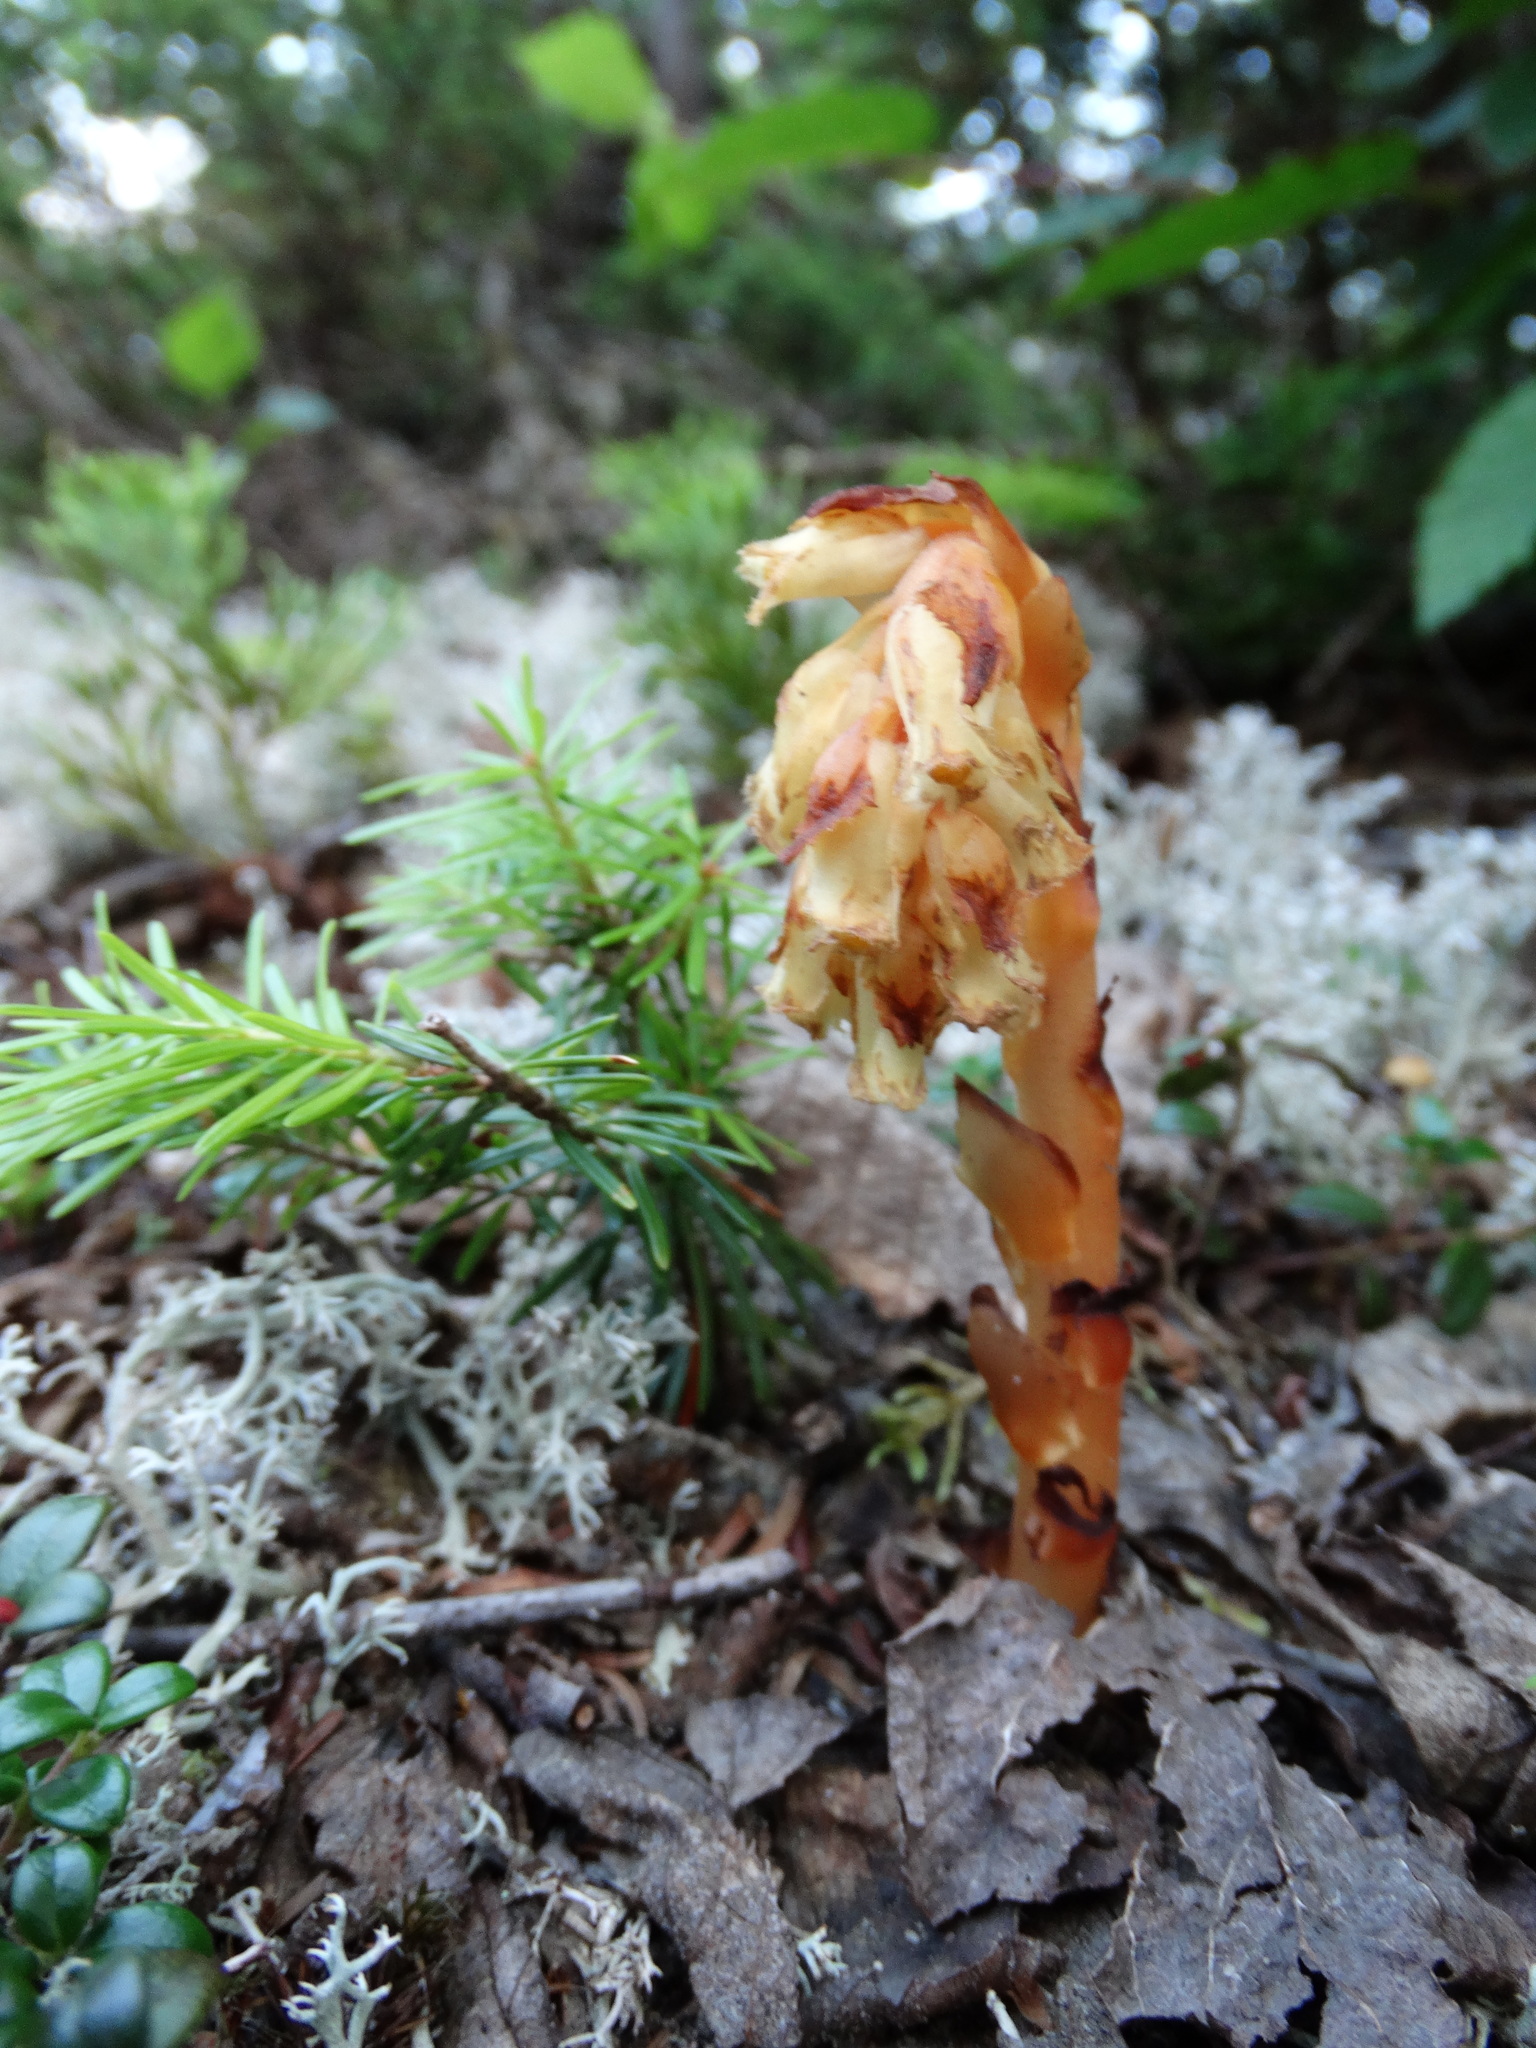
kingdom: Plantae
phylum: Tracheophyta
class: Magnoliopsida
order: Ericales
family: Ericaceae
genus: Hypopitys
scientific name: Hypopitys monotropa
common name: Yellow bird's-nest
